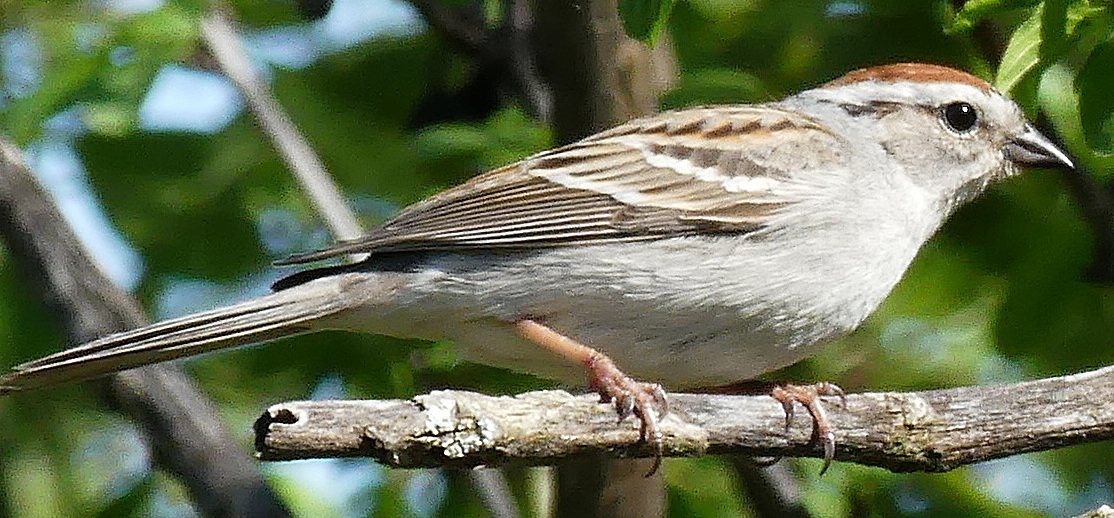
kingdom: Animalia
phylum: Chordata
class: Aves
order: Passeriformes
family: Passerellidae
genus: Spizella
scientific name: Spizella passerina
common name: Chipping sparrow
